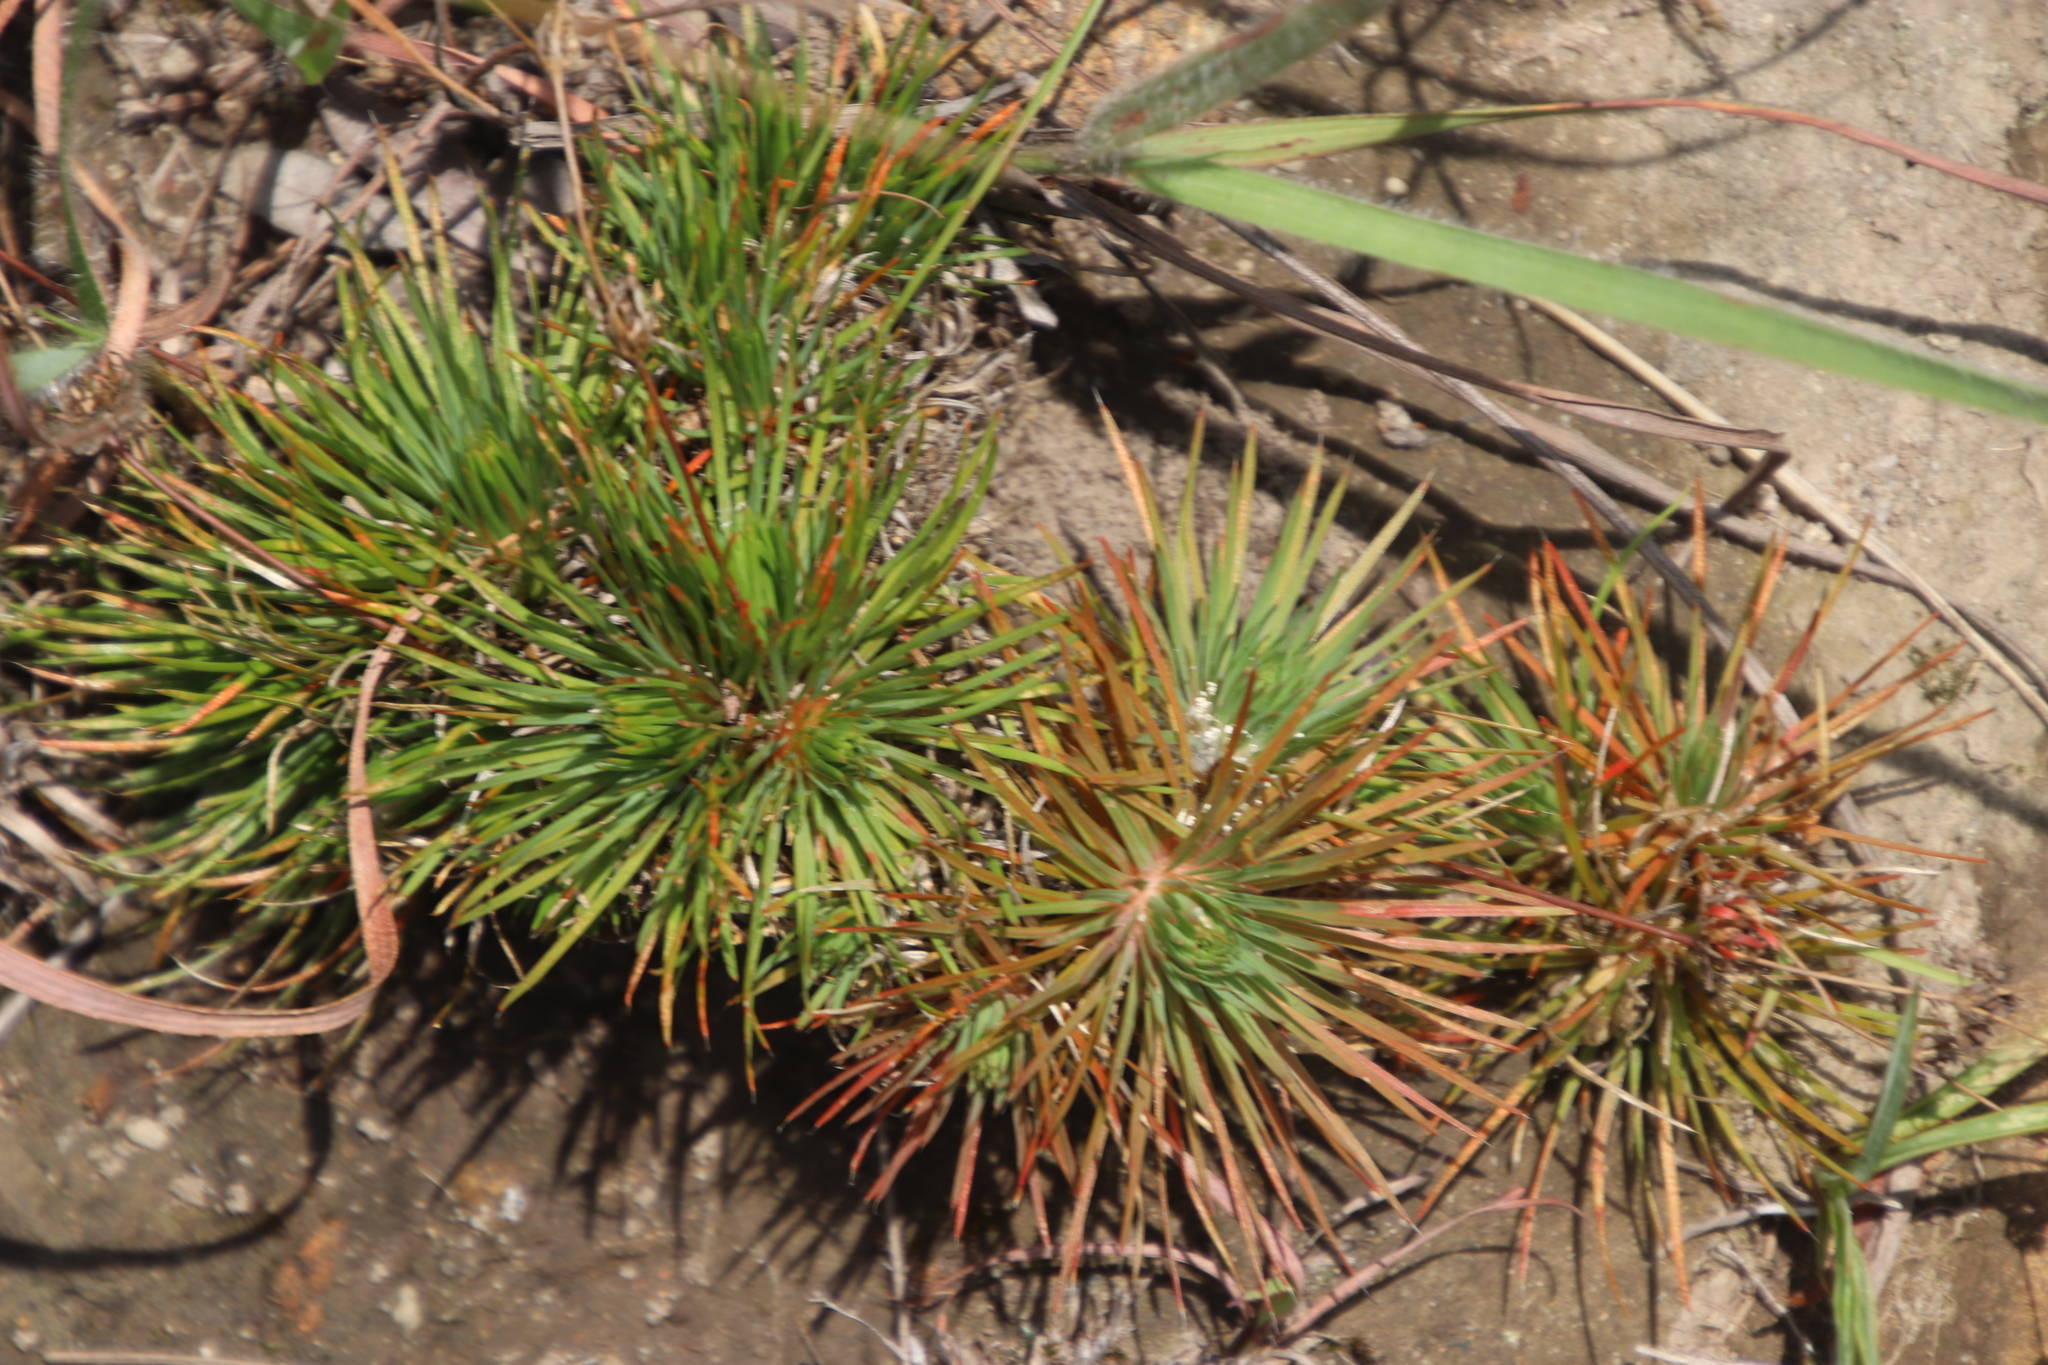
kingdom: Plantae
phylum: Tracheophyta
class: Magnoliopsida
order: Caryophyllales
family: Molluginaceae
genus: Psammotropha
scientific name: Psammotropha myriantha
